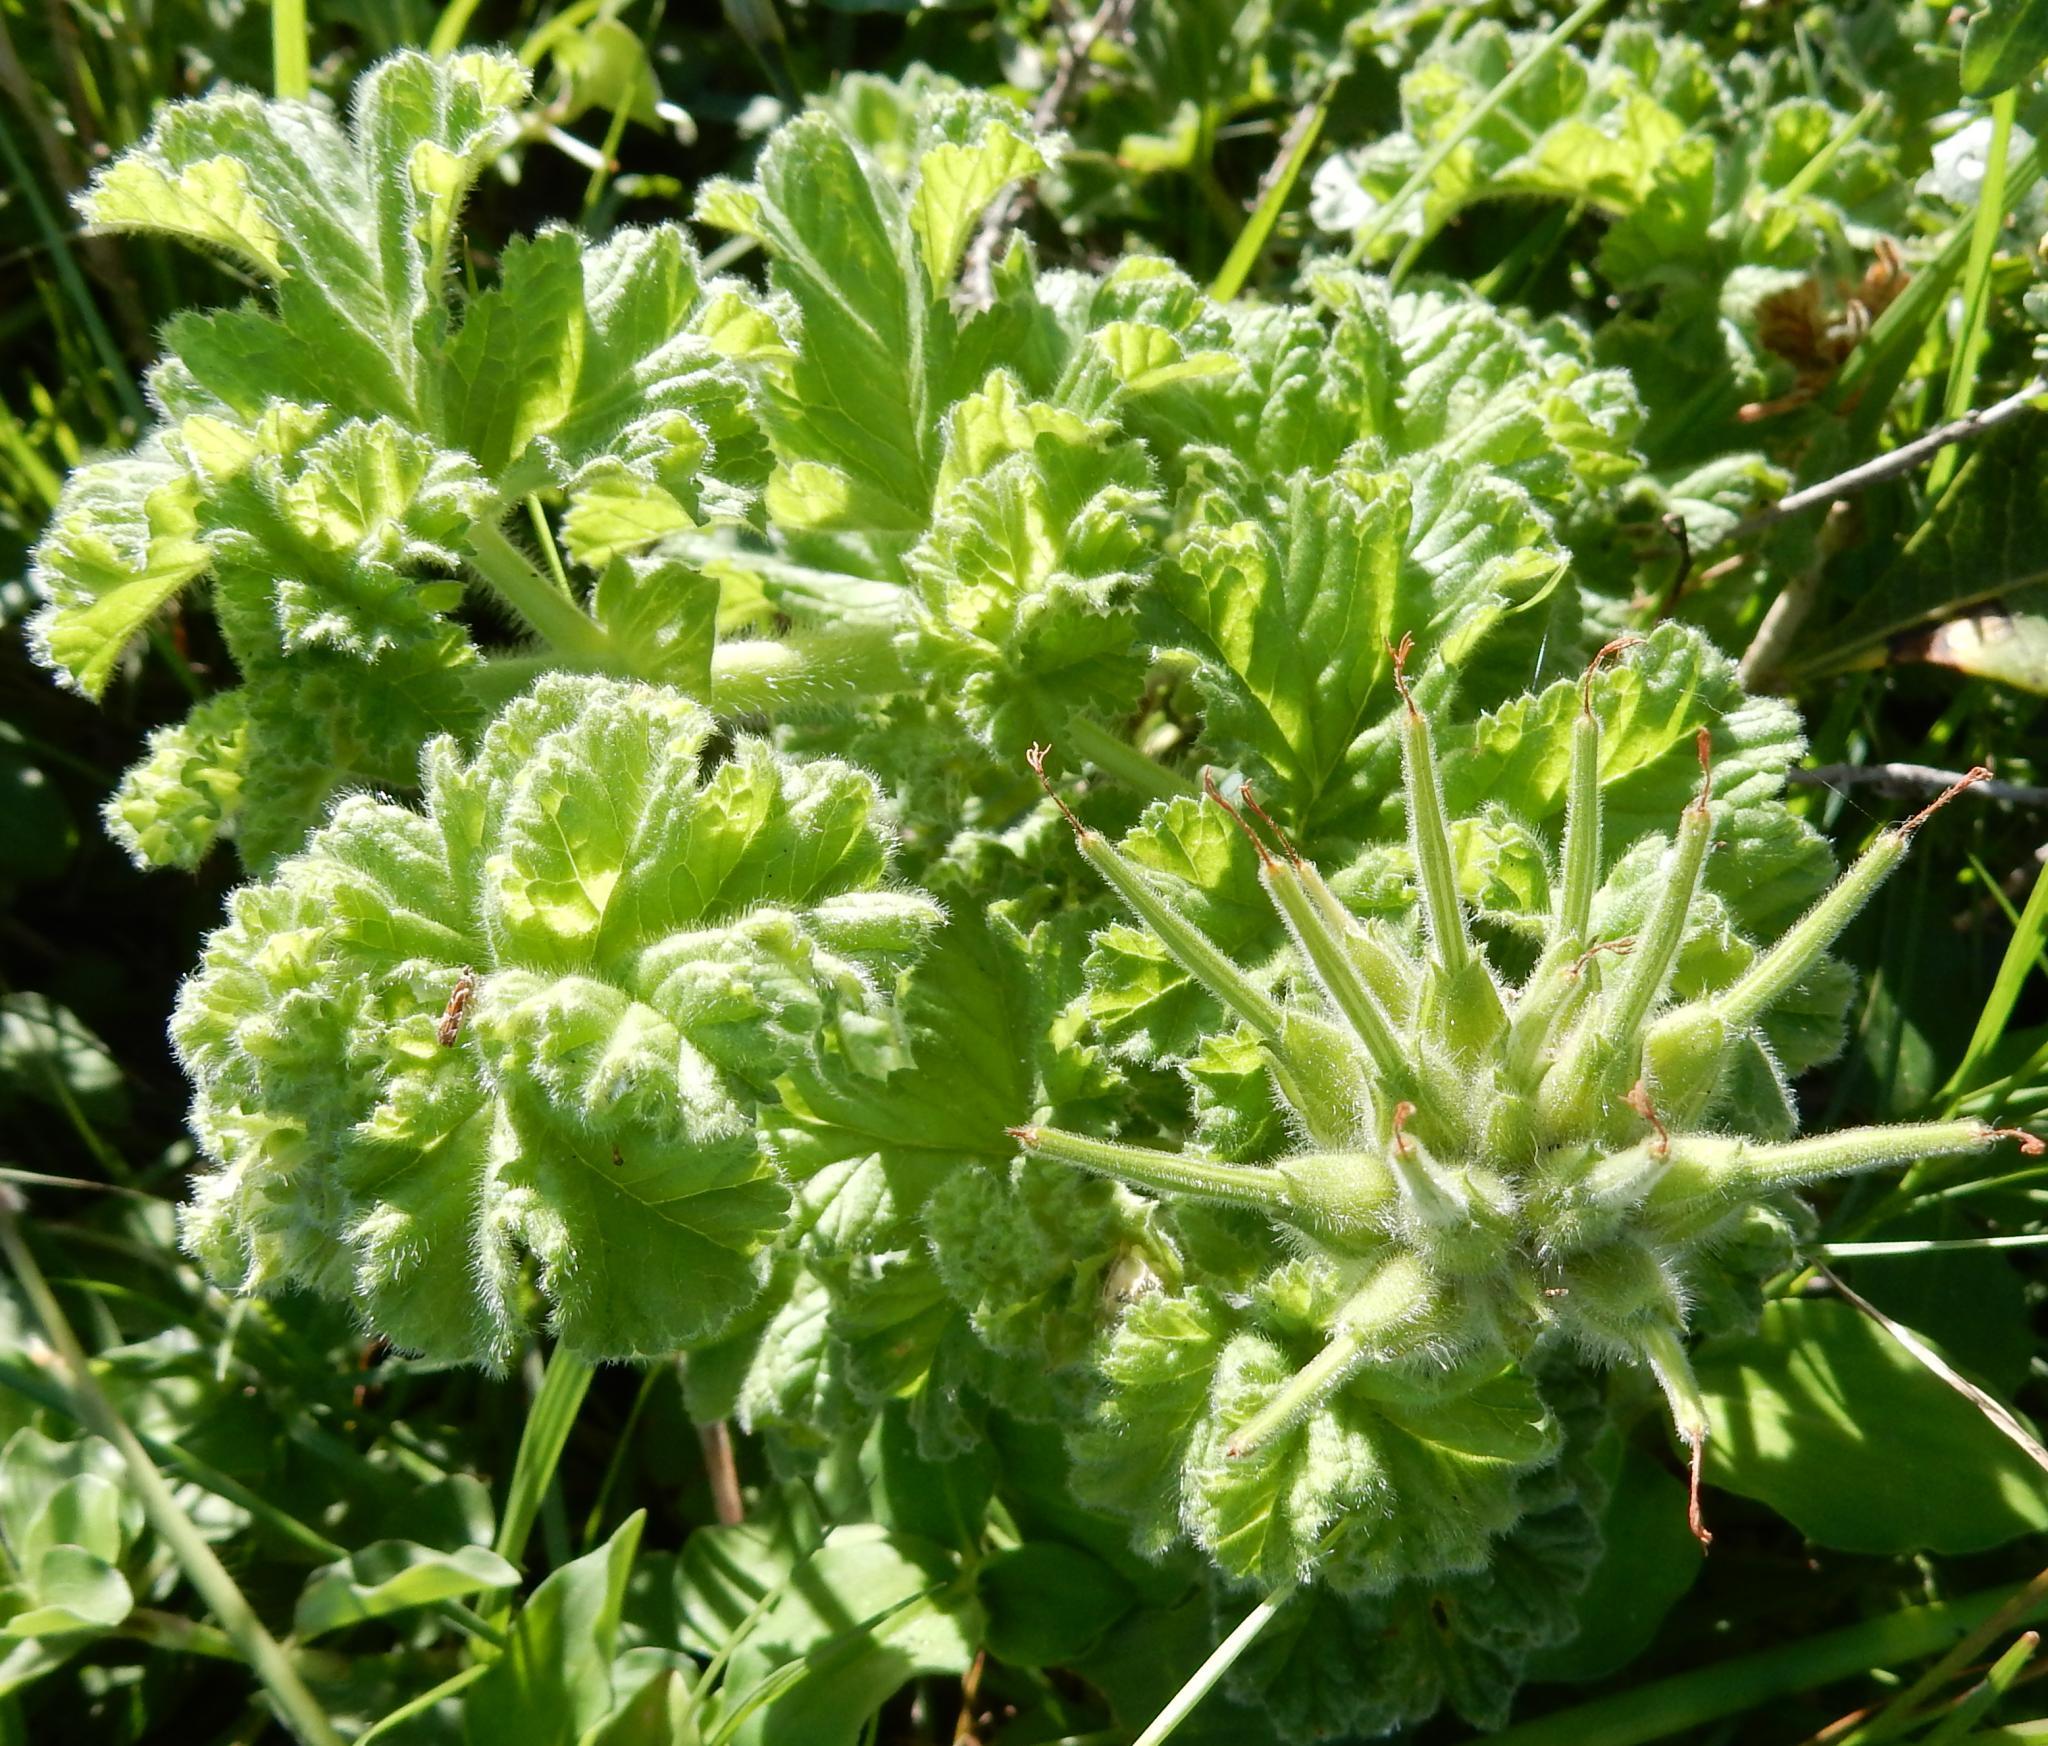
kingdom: Plantae
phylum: Tracheophyta
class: Magnoliopsida
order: Geraniales
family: Geraniaceae
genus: Pelargonium
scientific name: Pelargonium capitatum
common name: Rose scented geranium
